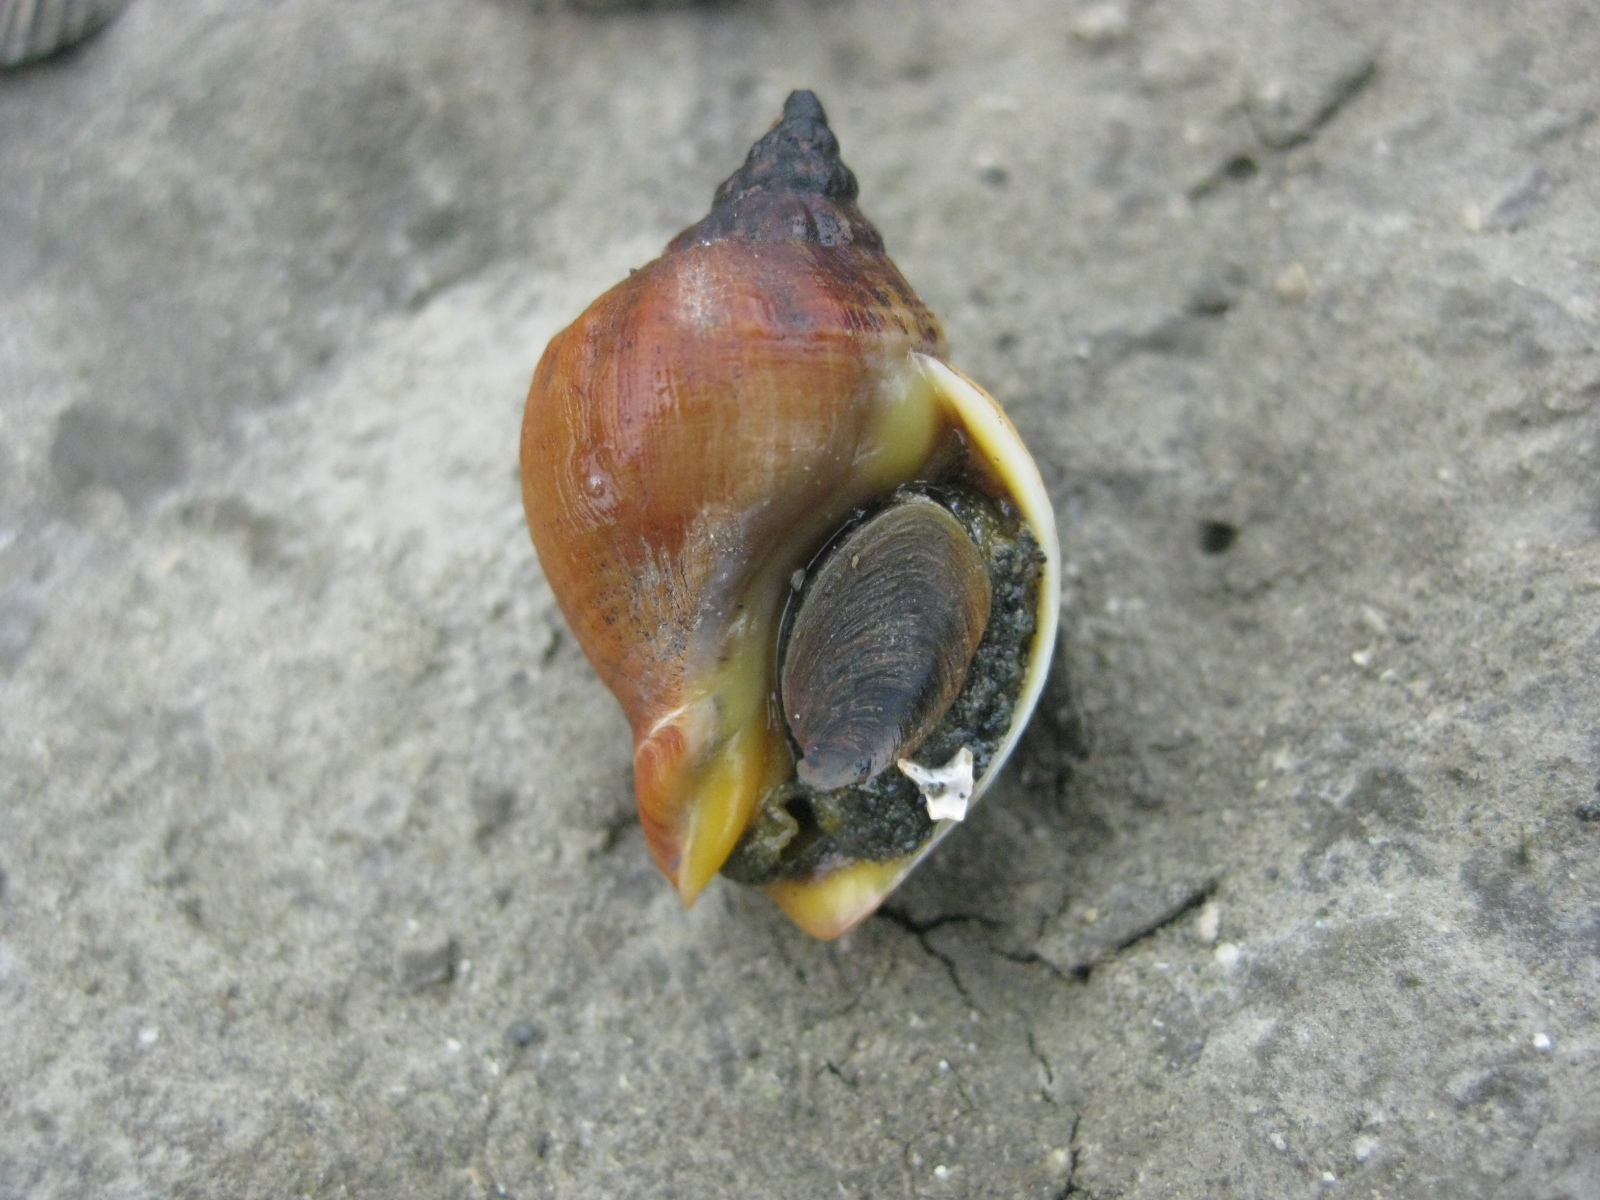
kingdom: Animalia
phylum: Mollusca
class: Gastropoda
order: Neogastropoda
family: Cominellidae
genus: Cominella
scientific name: Cominella adspersa
